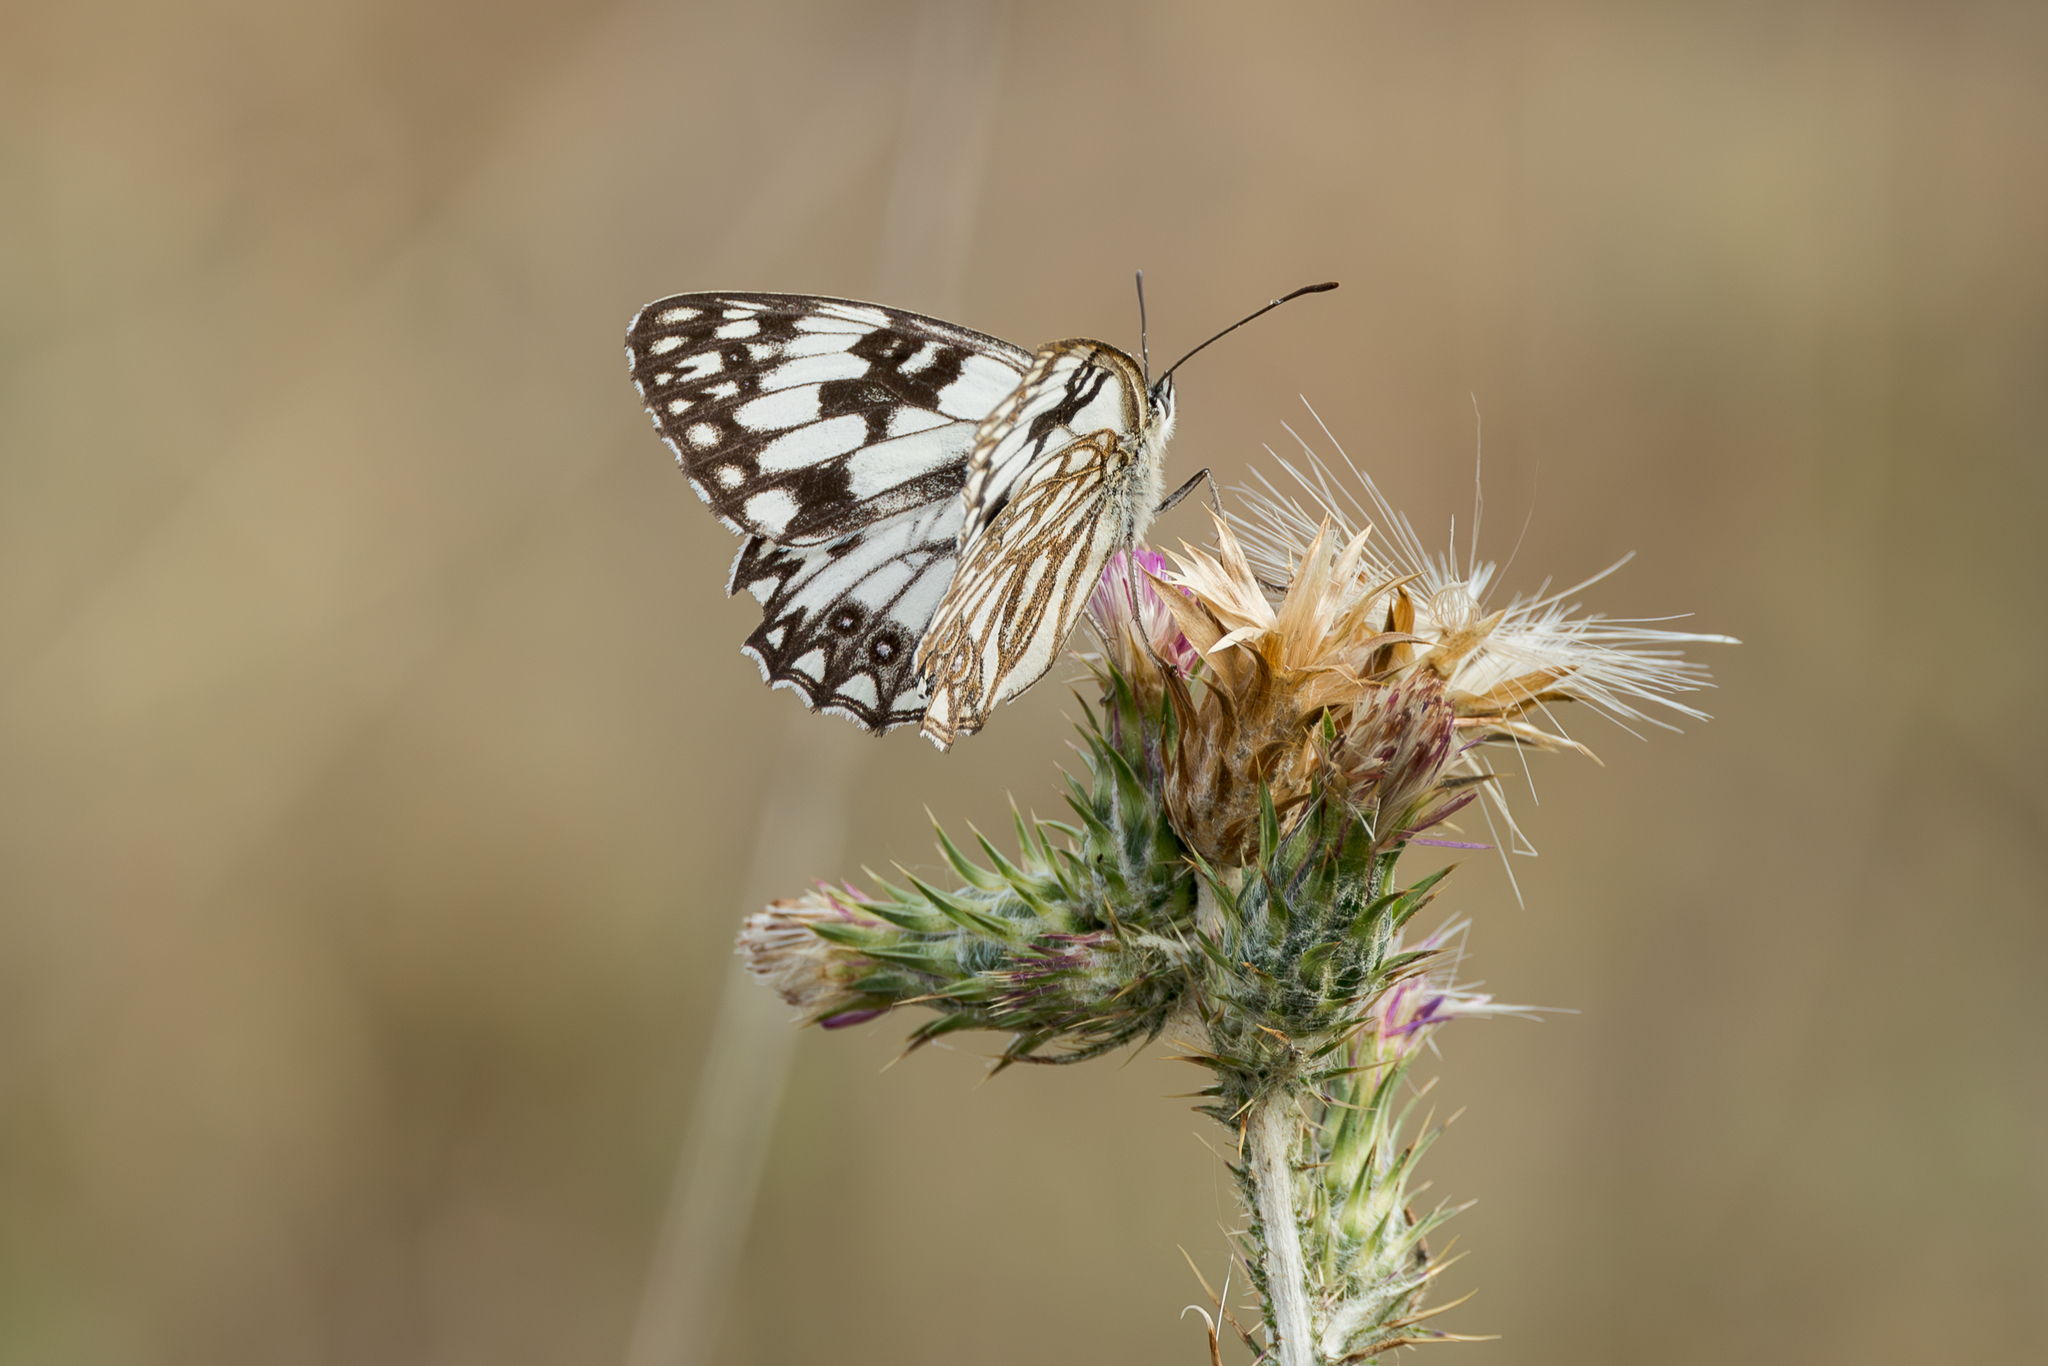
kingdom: Animalia
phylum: Arthropoda
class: Insecta
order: Lepidoptera
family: Nymphalidae
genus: Melanargia
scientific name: Melanargia occitanica
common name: Western marbled white
